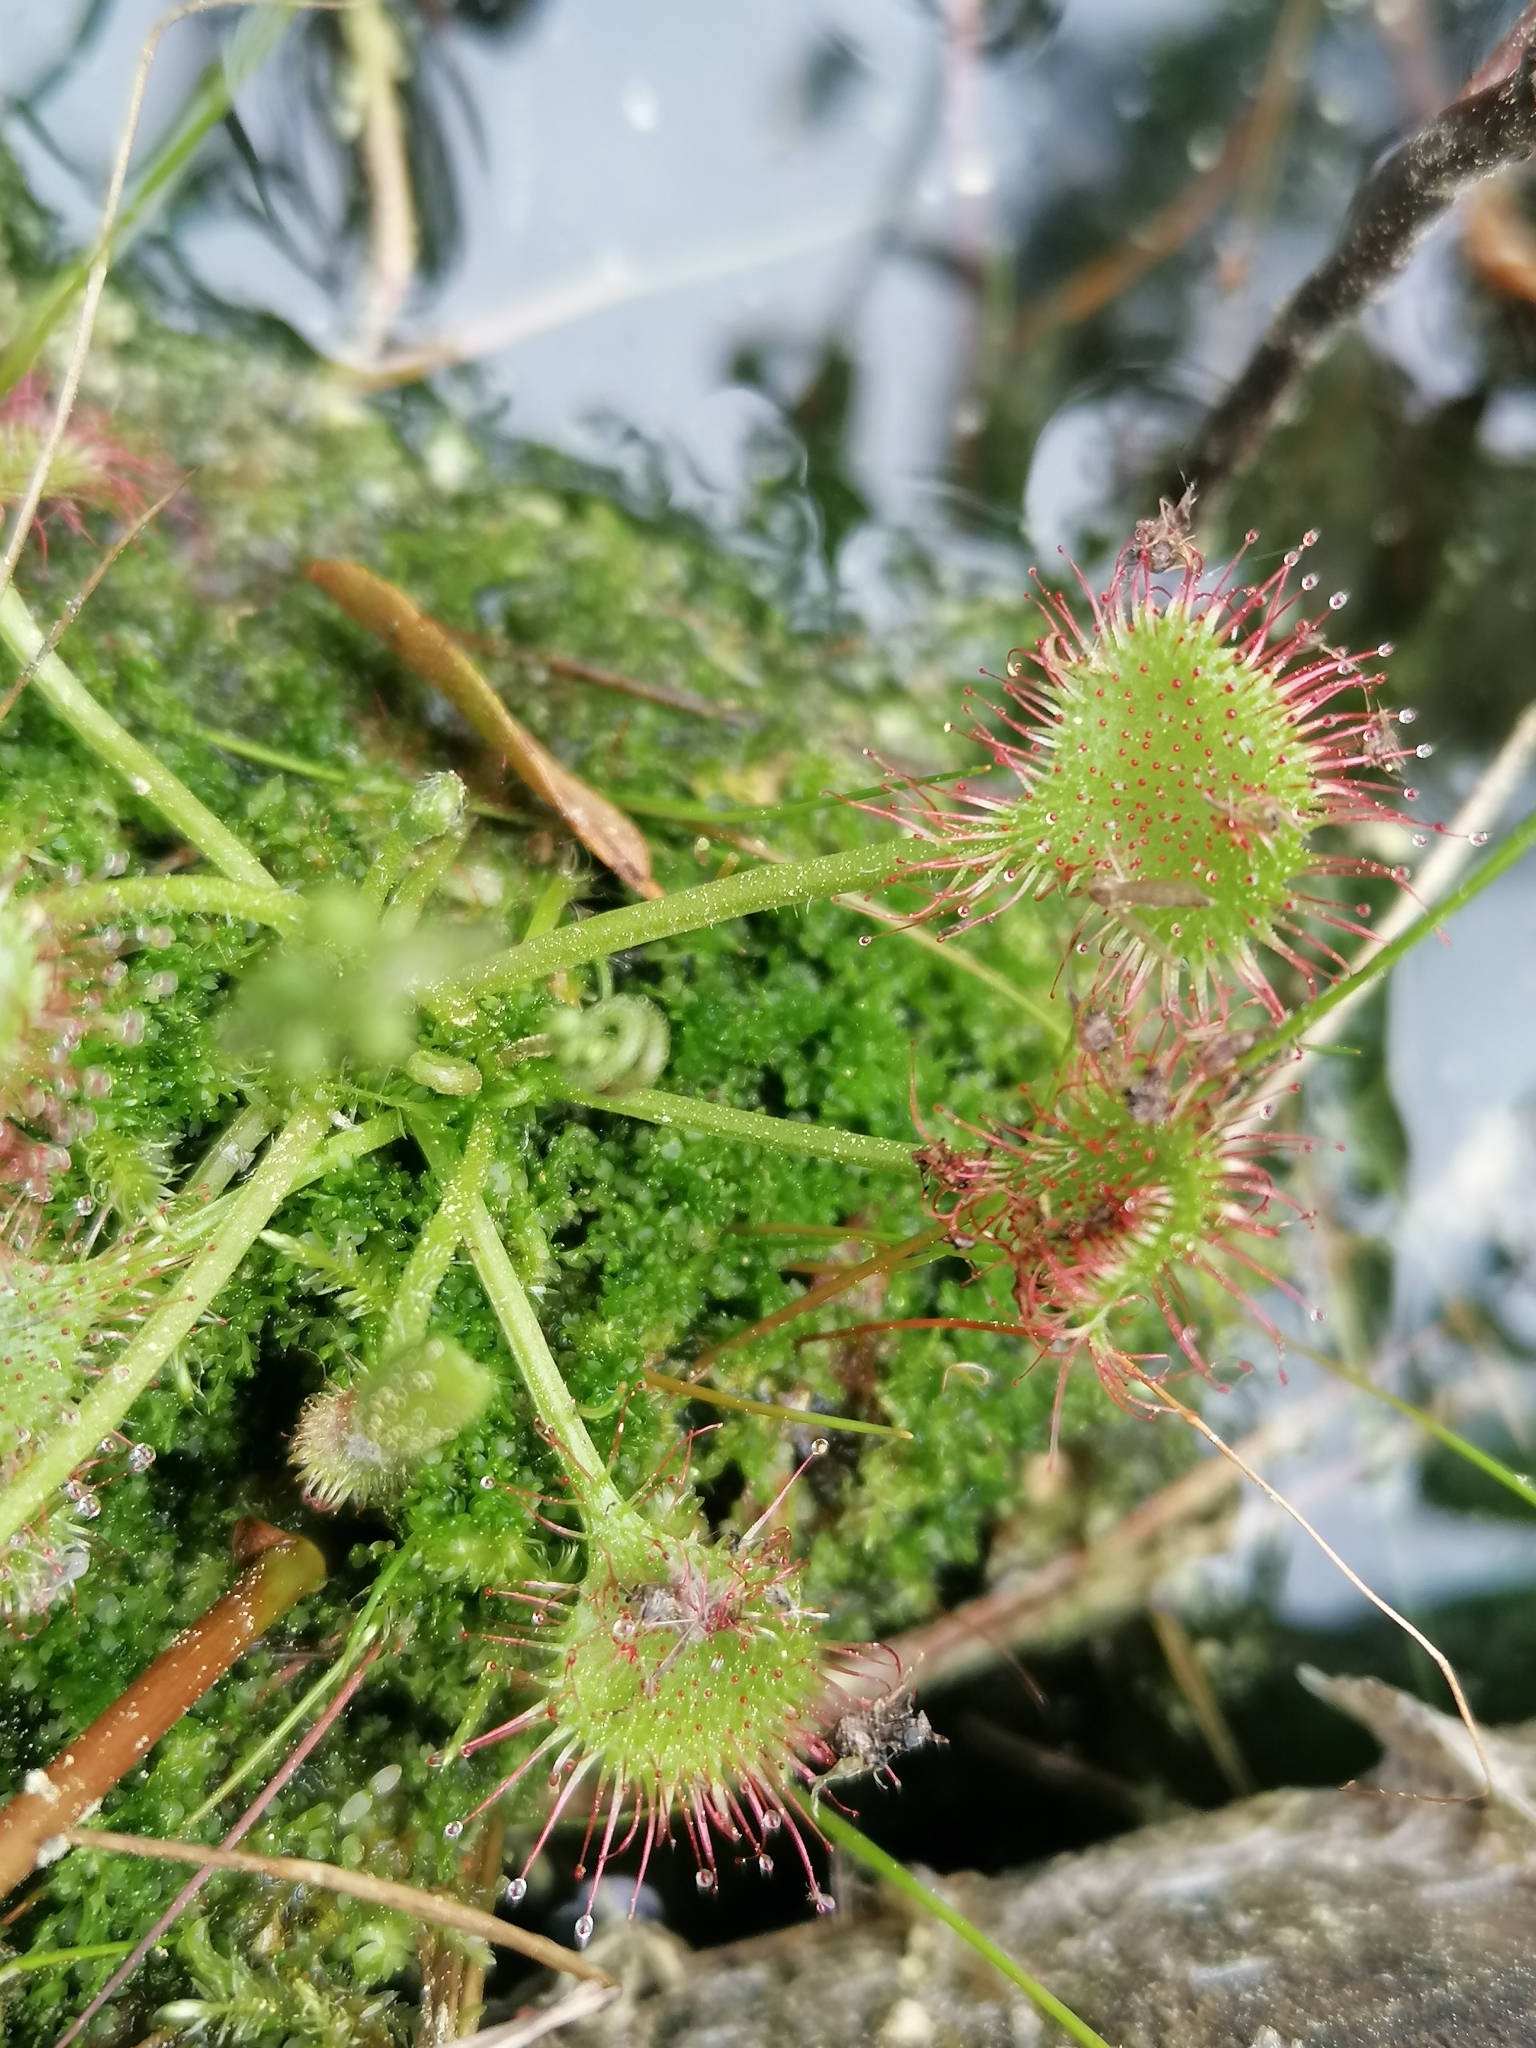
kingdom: Plantae
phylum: Tracheophyta
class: Magnoliopsida
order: Caryophyllales
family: Droseraceae
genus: Drosera
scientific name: Drosera rotundifolia
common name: Round-leaved sundew
